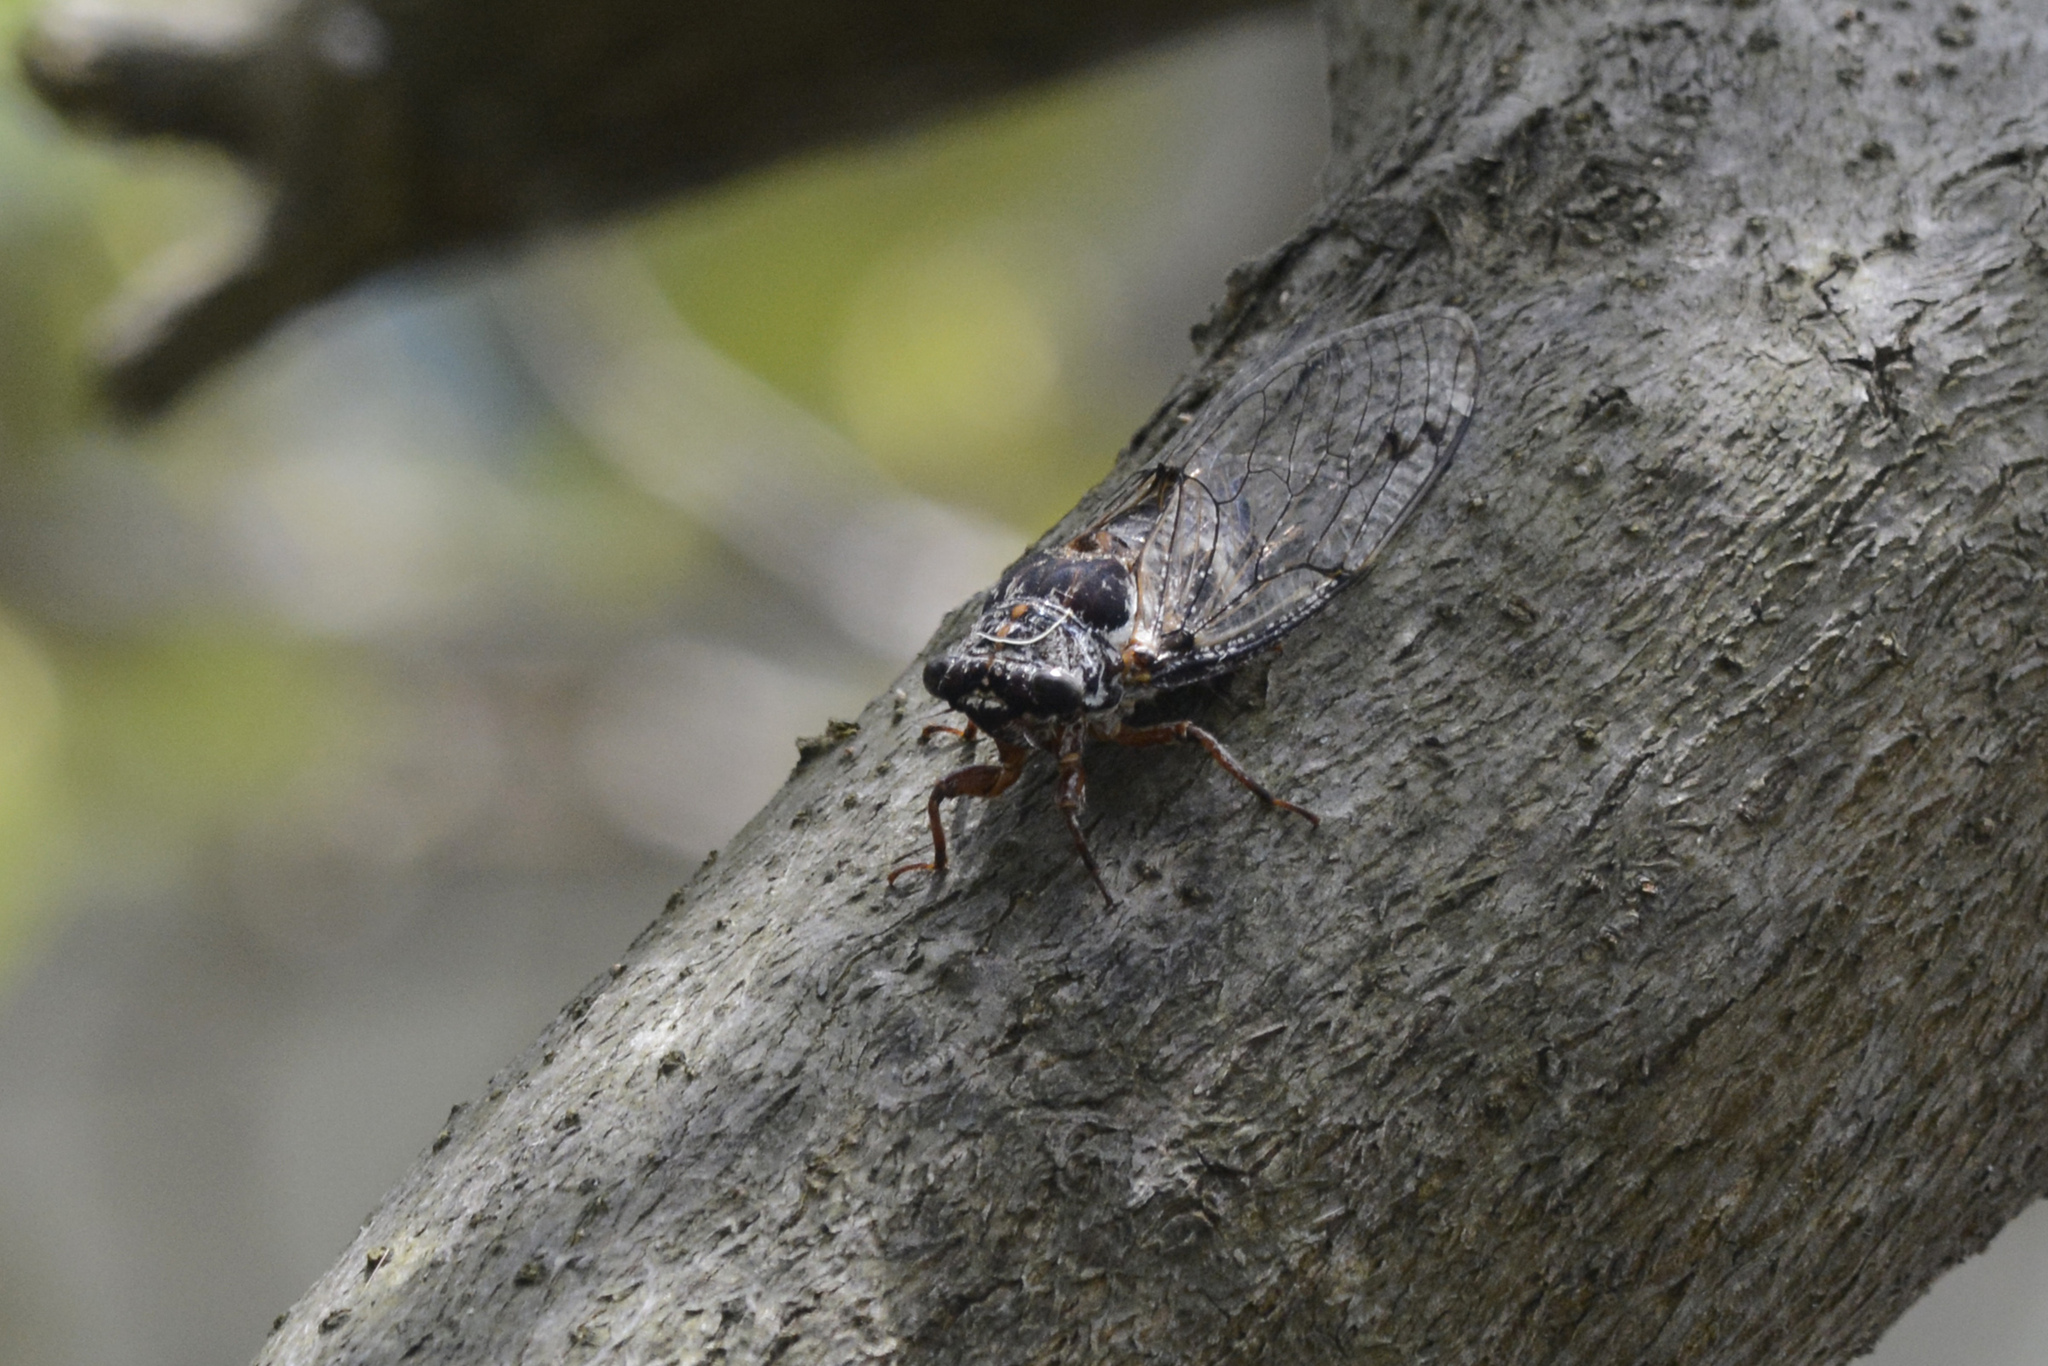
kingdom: Animalia
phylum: Arthropoda
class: Insecta
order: Hemiptera
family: Cicadidae
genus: Aleeta
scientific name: Aleeta curvicosta
